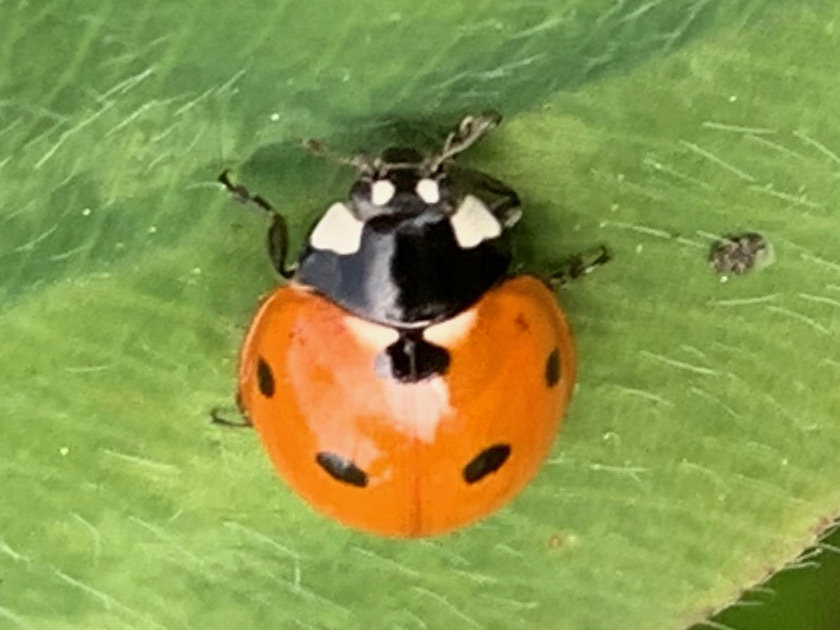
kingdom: Animalia
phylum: Arthropoda
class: Insecta
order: Coleoptera
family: Coccinellidae
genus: Coccinella
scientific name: Coccinella septempunctata
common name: Sevenspotted lady beetle
